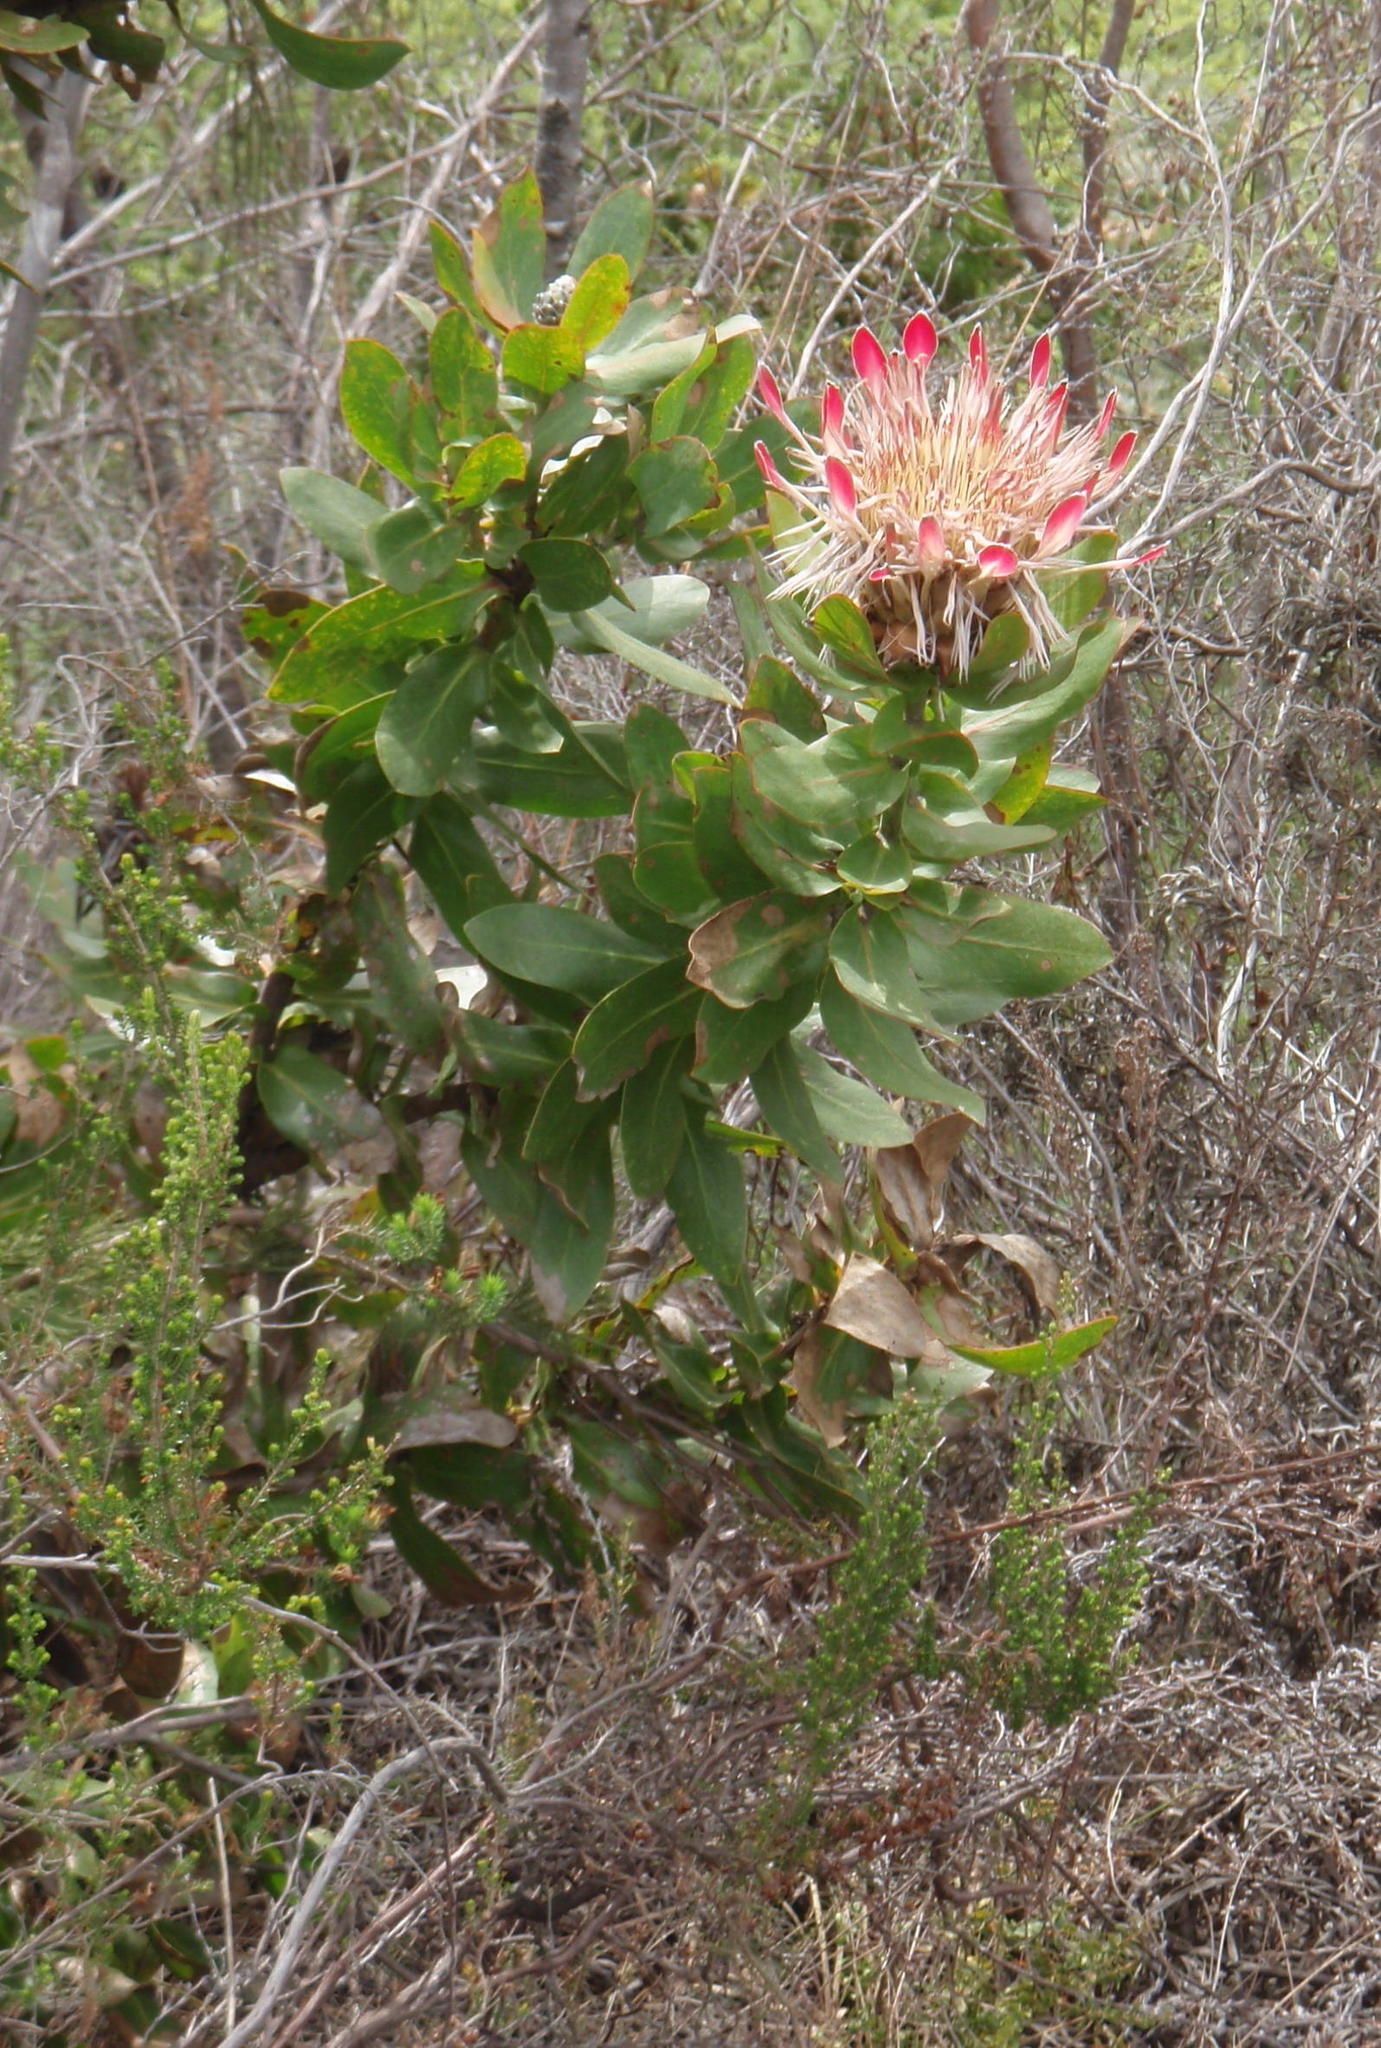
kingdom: Plantae
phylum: Tracheophyta
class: Magnoliopsida
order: Proteales
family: Proteaceae
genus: Protea
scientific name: Protea eximia
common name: Broad-leaved sugarbush
